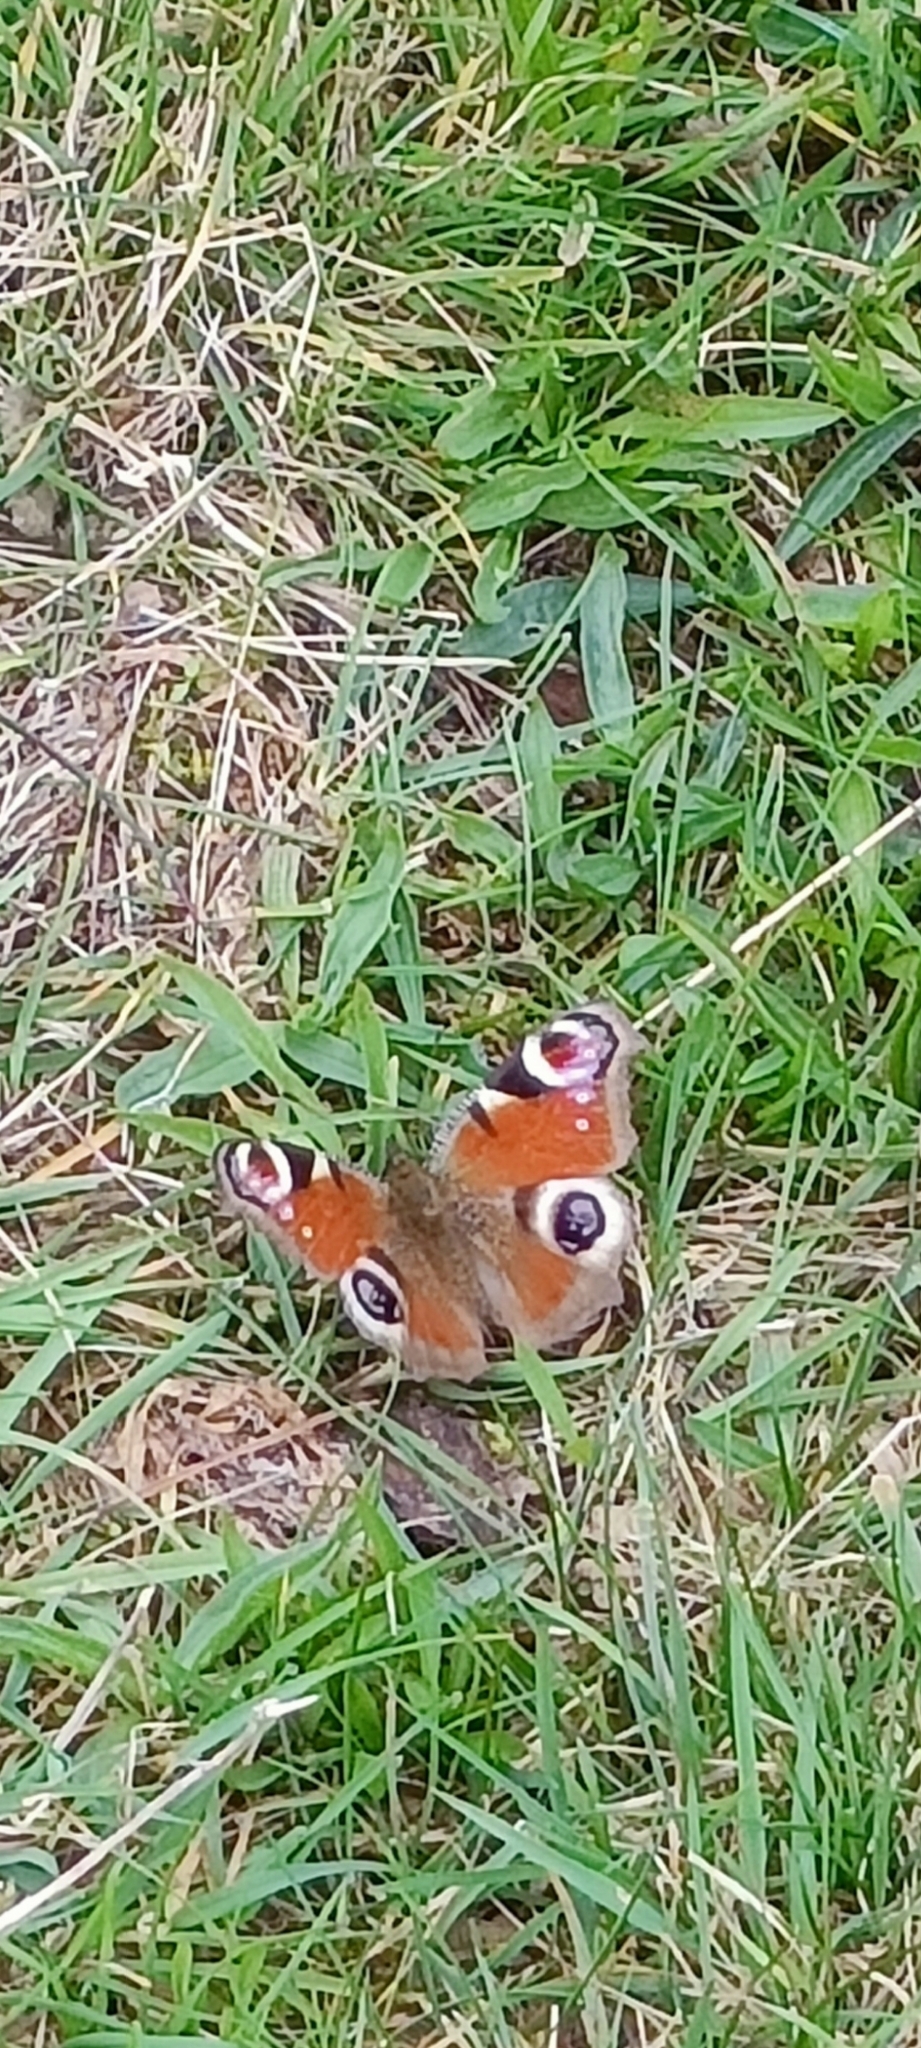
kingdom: Animalia
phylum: Arthropoda
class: Insecta
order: Lepidoptera
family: Nymphalidae
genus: Aglais
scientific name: Aglais io
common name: Peacock
